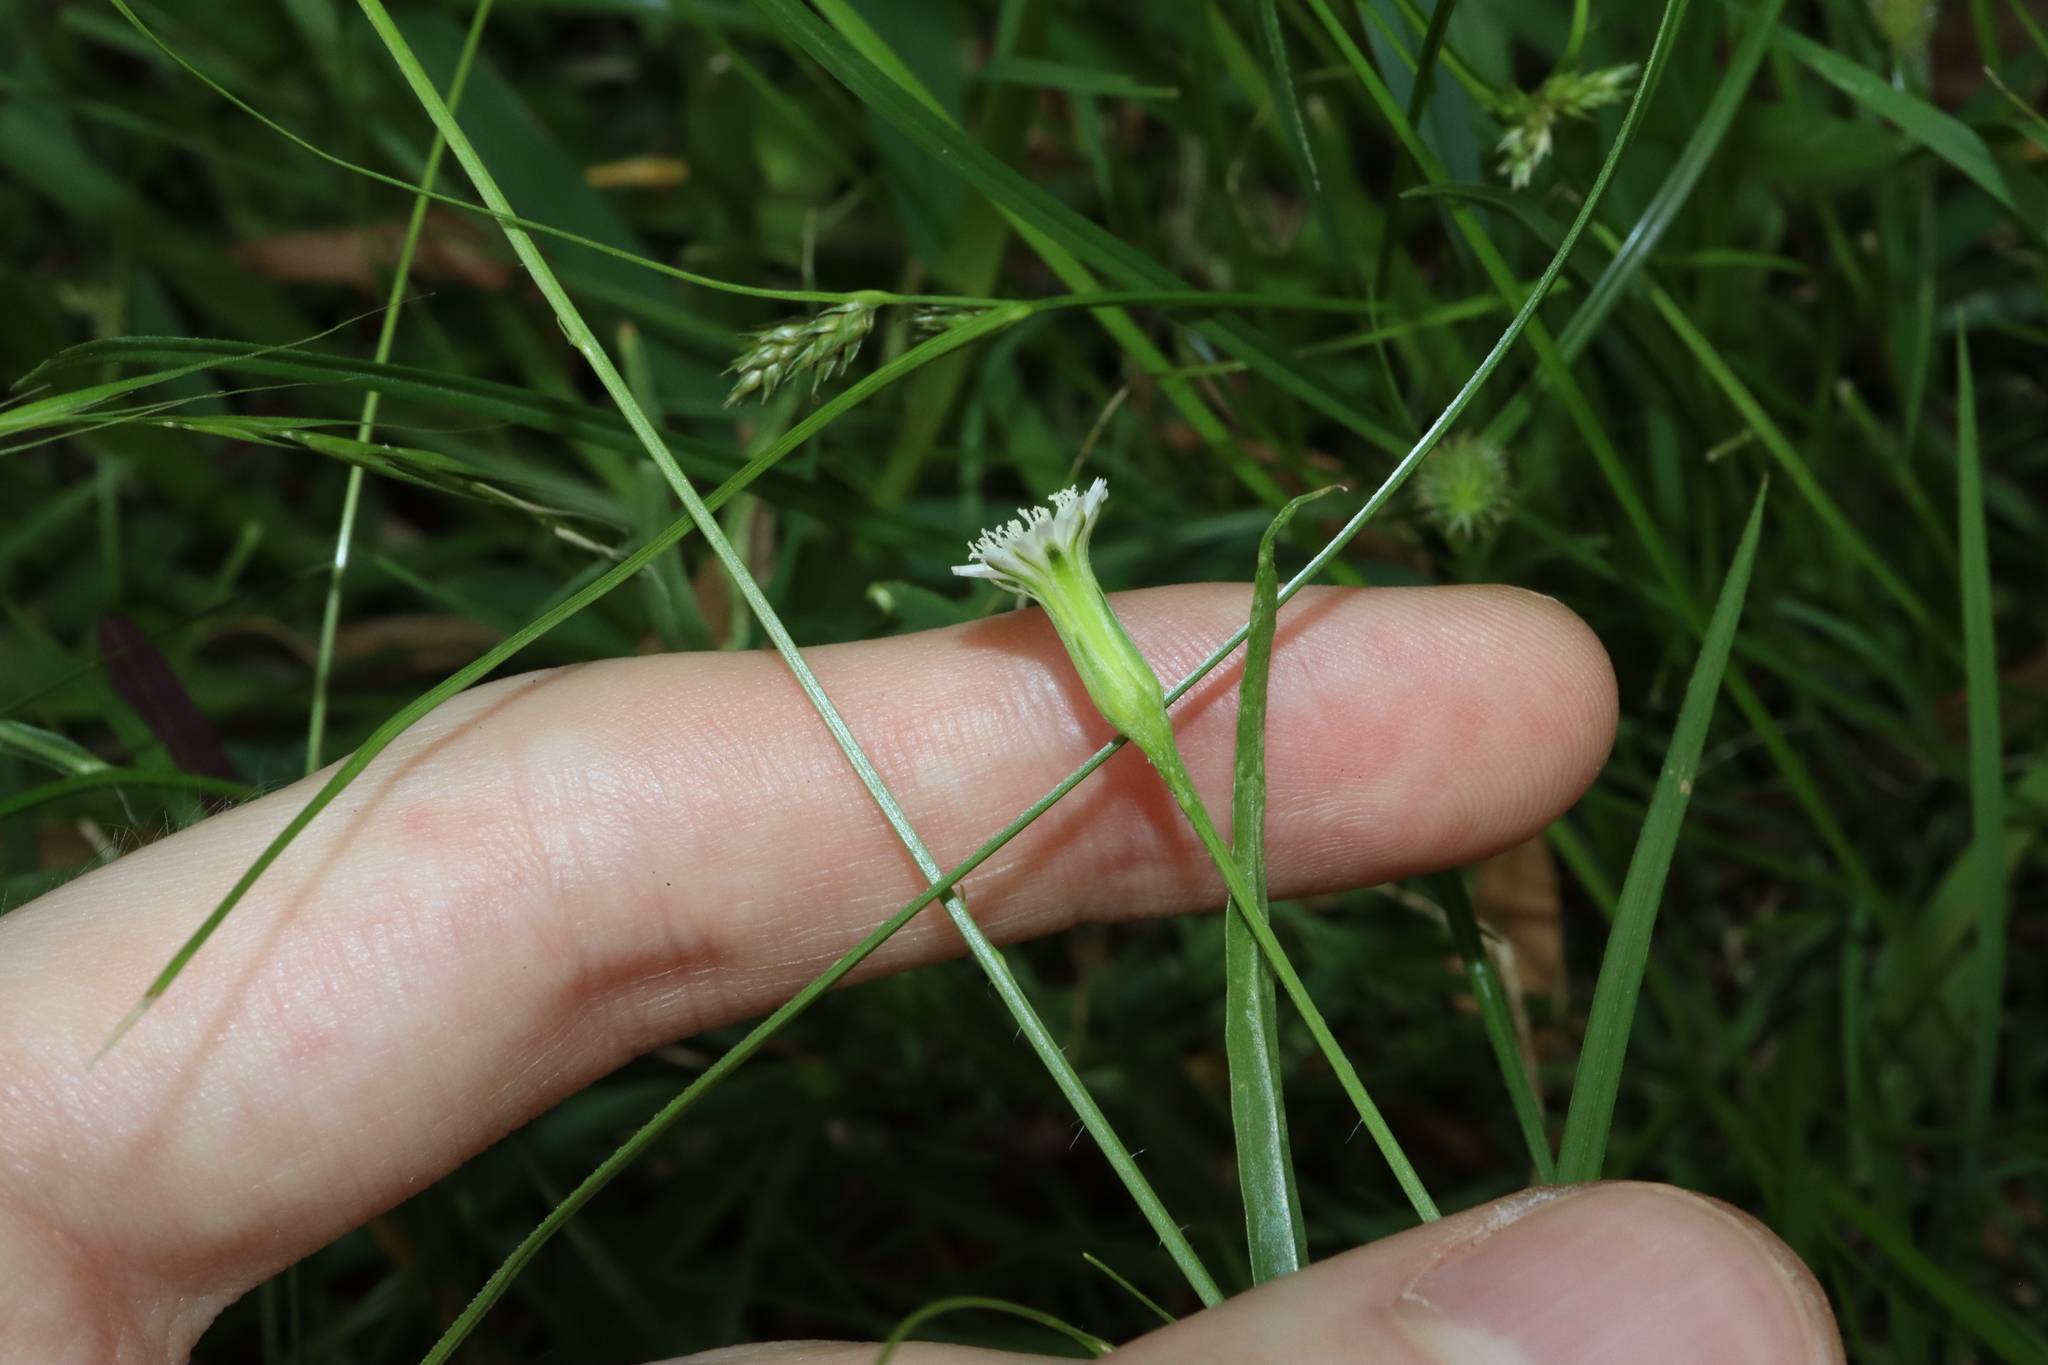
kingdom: Plantae
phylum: Tracheophyta
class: Magnoliopsida
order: Asterales
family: Asteraceae
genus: Hypochaeris
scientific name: Hypochaeris albiflora
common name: White flatweed
